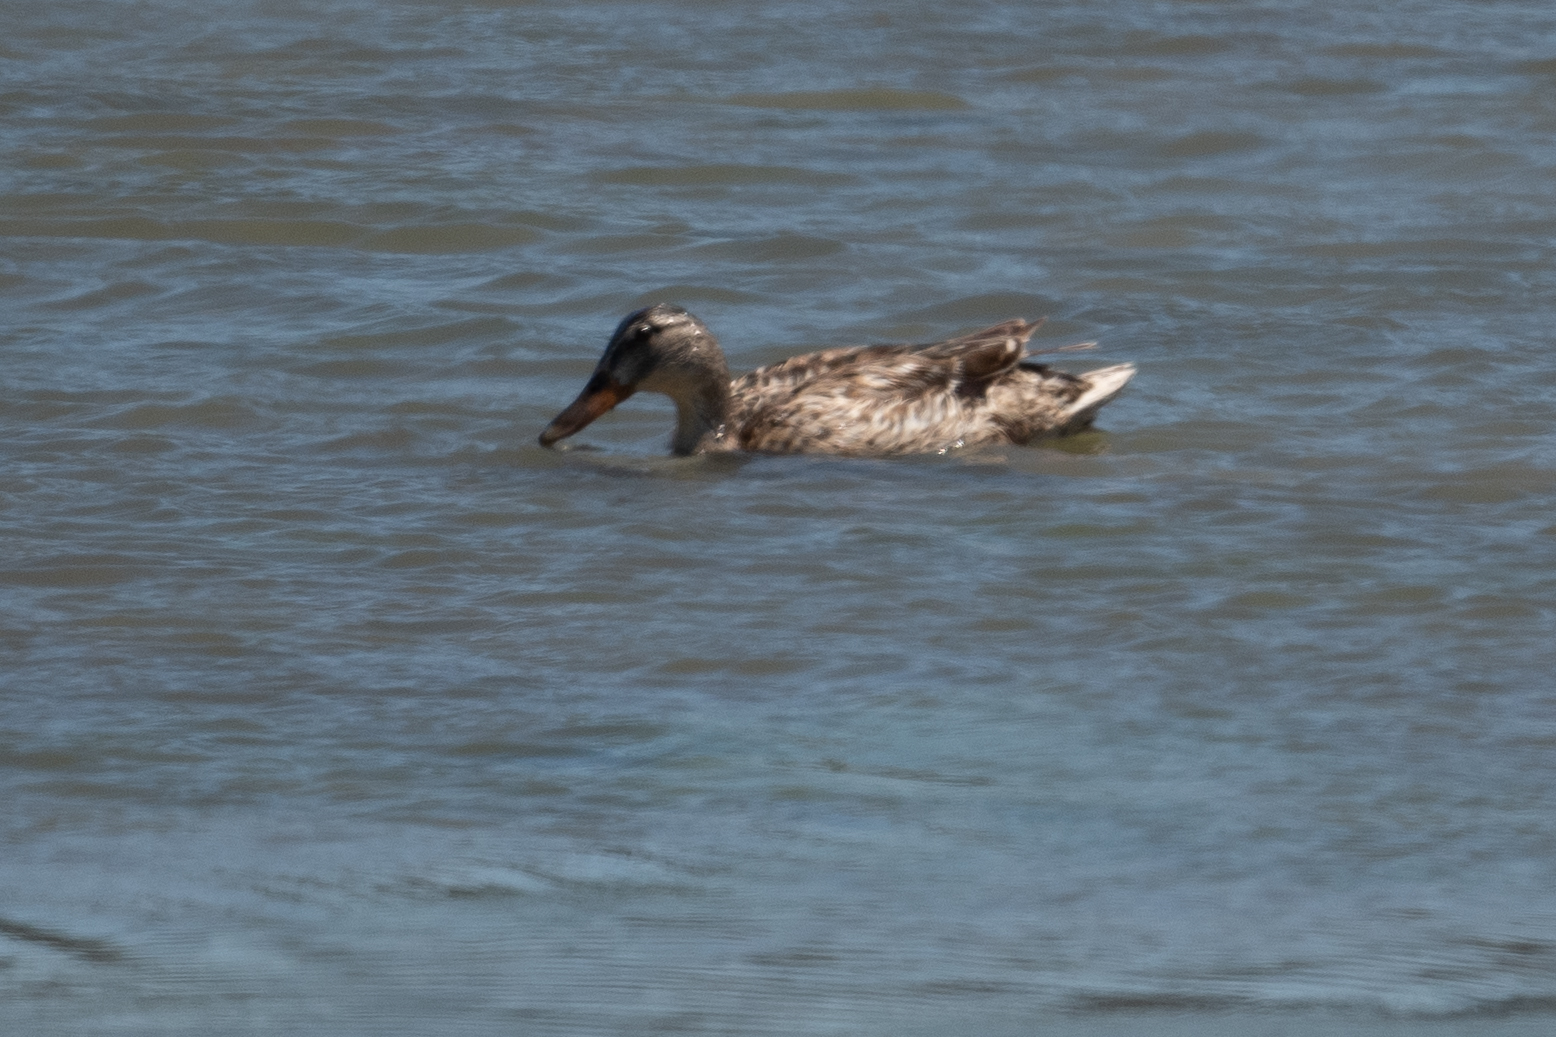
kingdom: Animalia
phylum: Chordata
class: Aves
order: Anseriformes
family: Anatidae
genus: Anas
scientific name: Anas platyrhynchos
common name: Mallard
